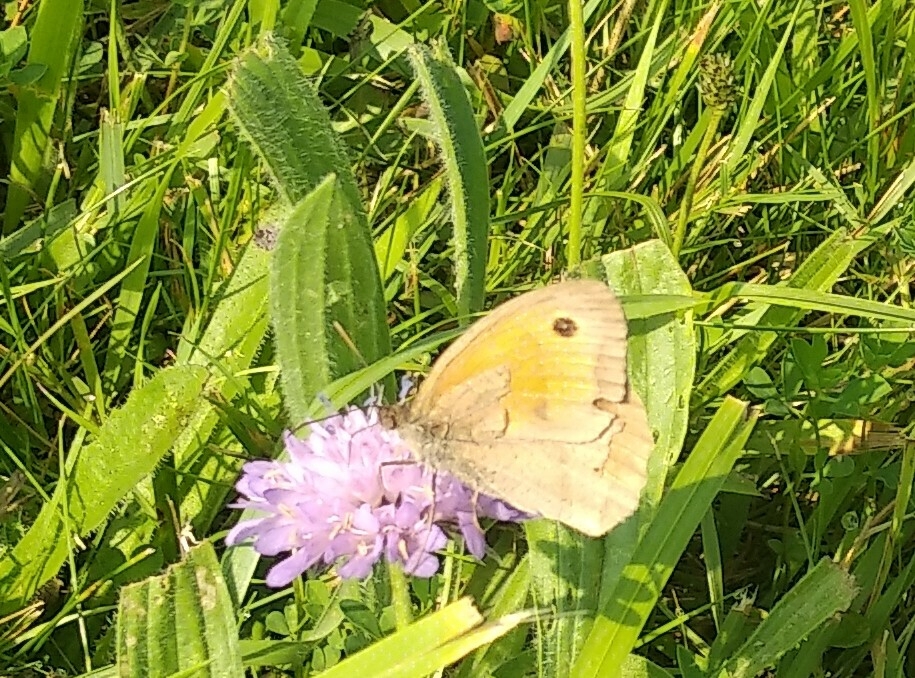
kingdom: Animalia
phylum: Arthropoda
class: Insecta
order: Lepidoptera
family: Nymphalidae
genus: Maniola
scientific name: Maniola jurtina
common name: Meadow brown
